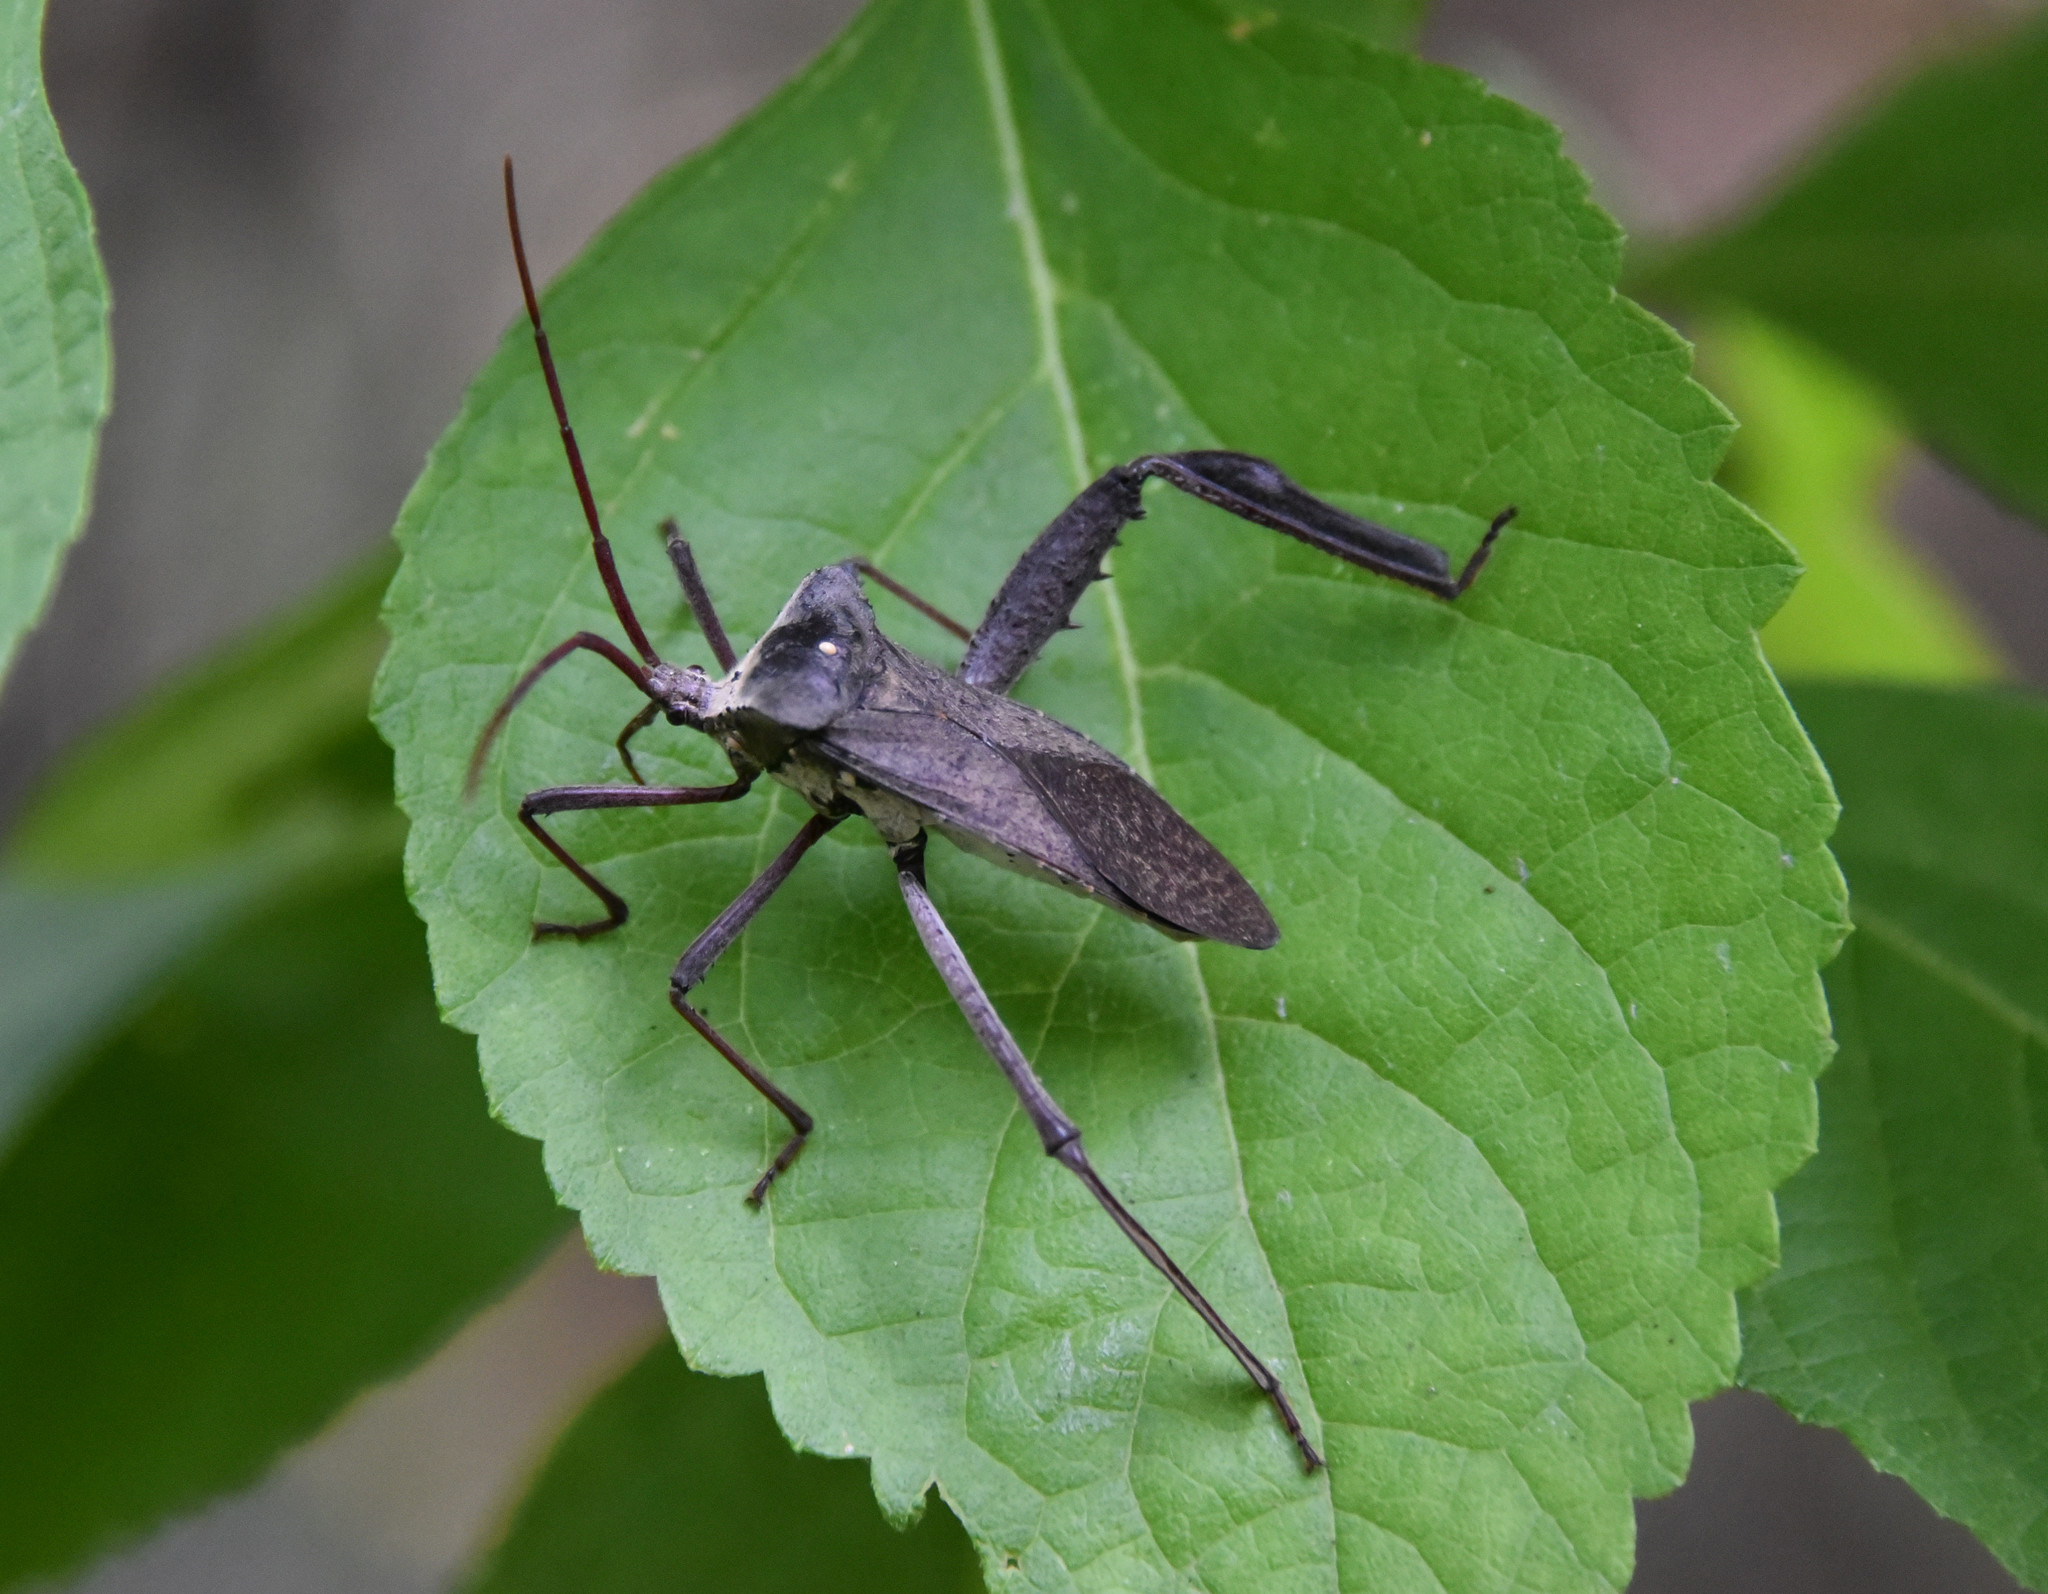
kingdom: Animalia
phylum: Arthropoda
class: Insecta
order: Hemiptera
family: Coreidae
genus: Acanthocephala
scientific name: Acanthocephala declivis
